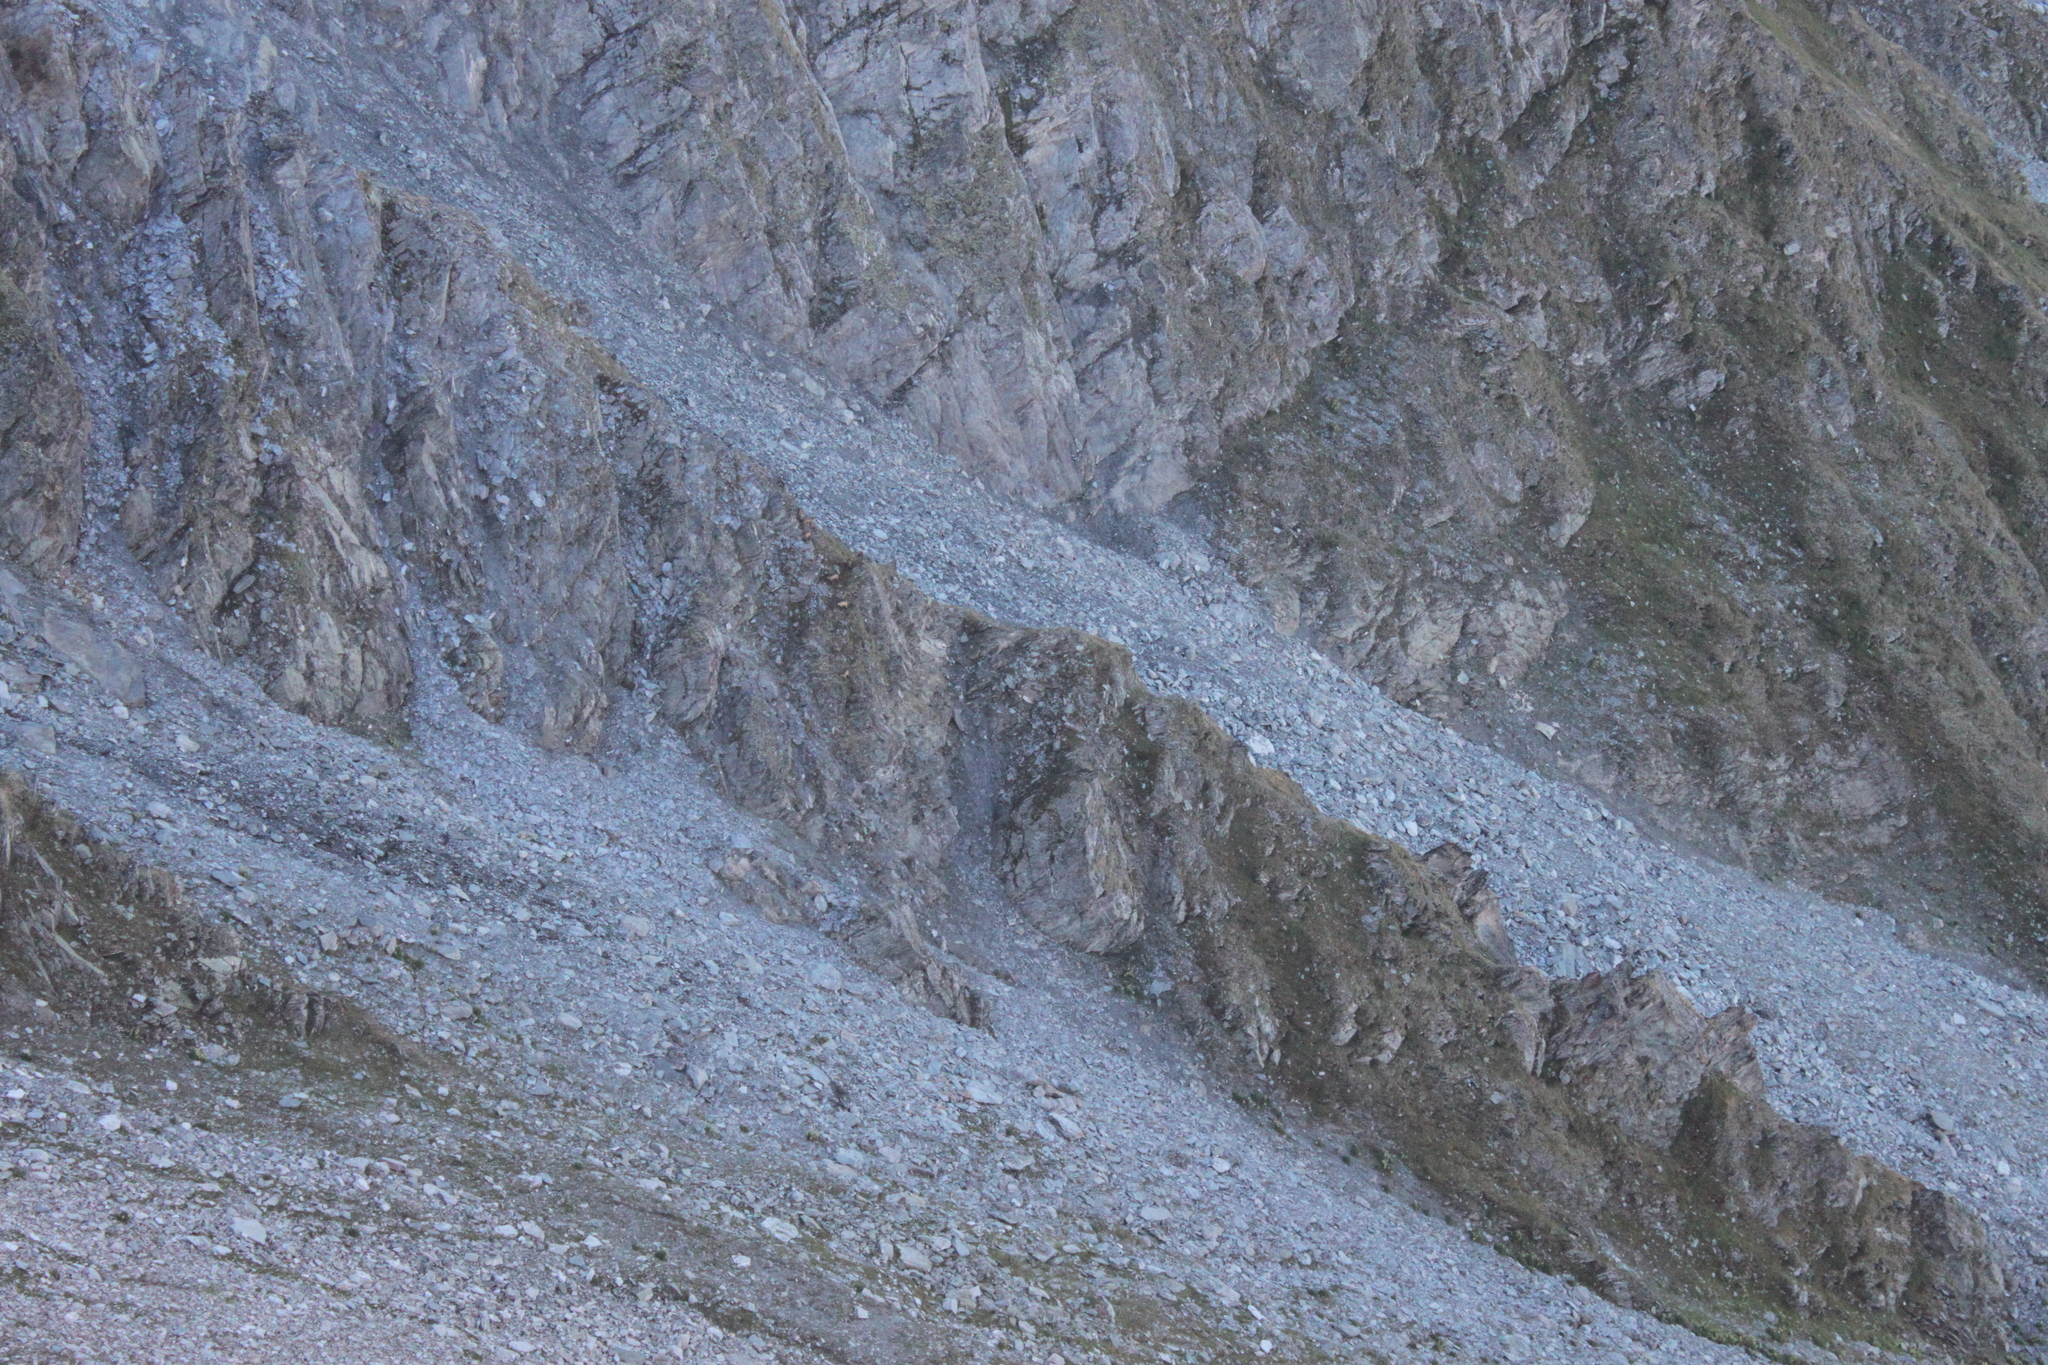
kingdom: Animalia
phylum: Chordata
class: Mammalia
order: Artiodactyla
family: Bovidae
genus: Rupicapra
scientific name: Rupicapra rupicapra
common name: Chamois
